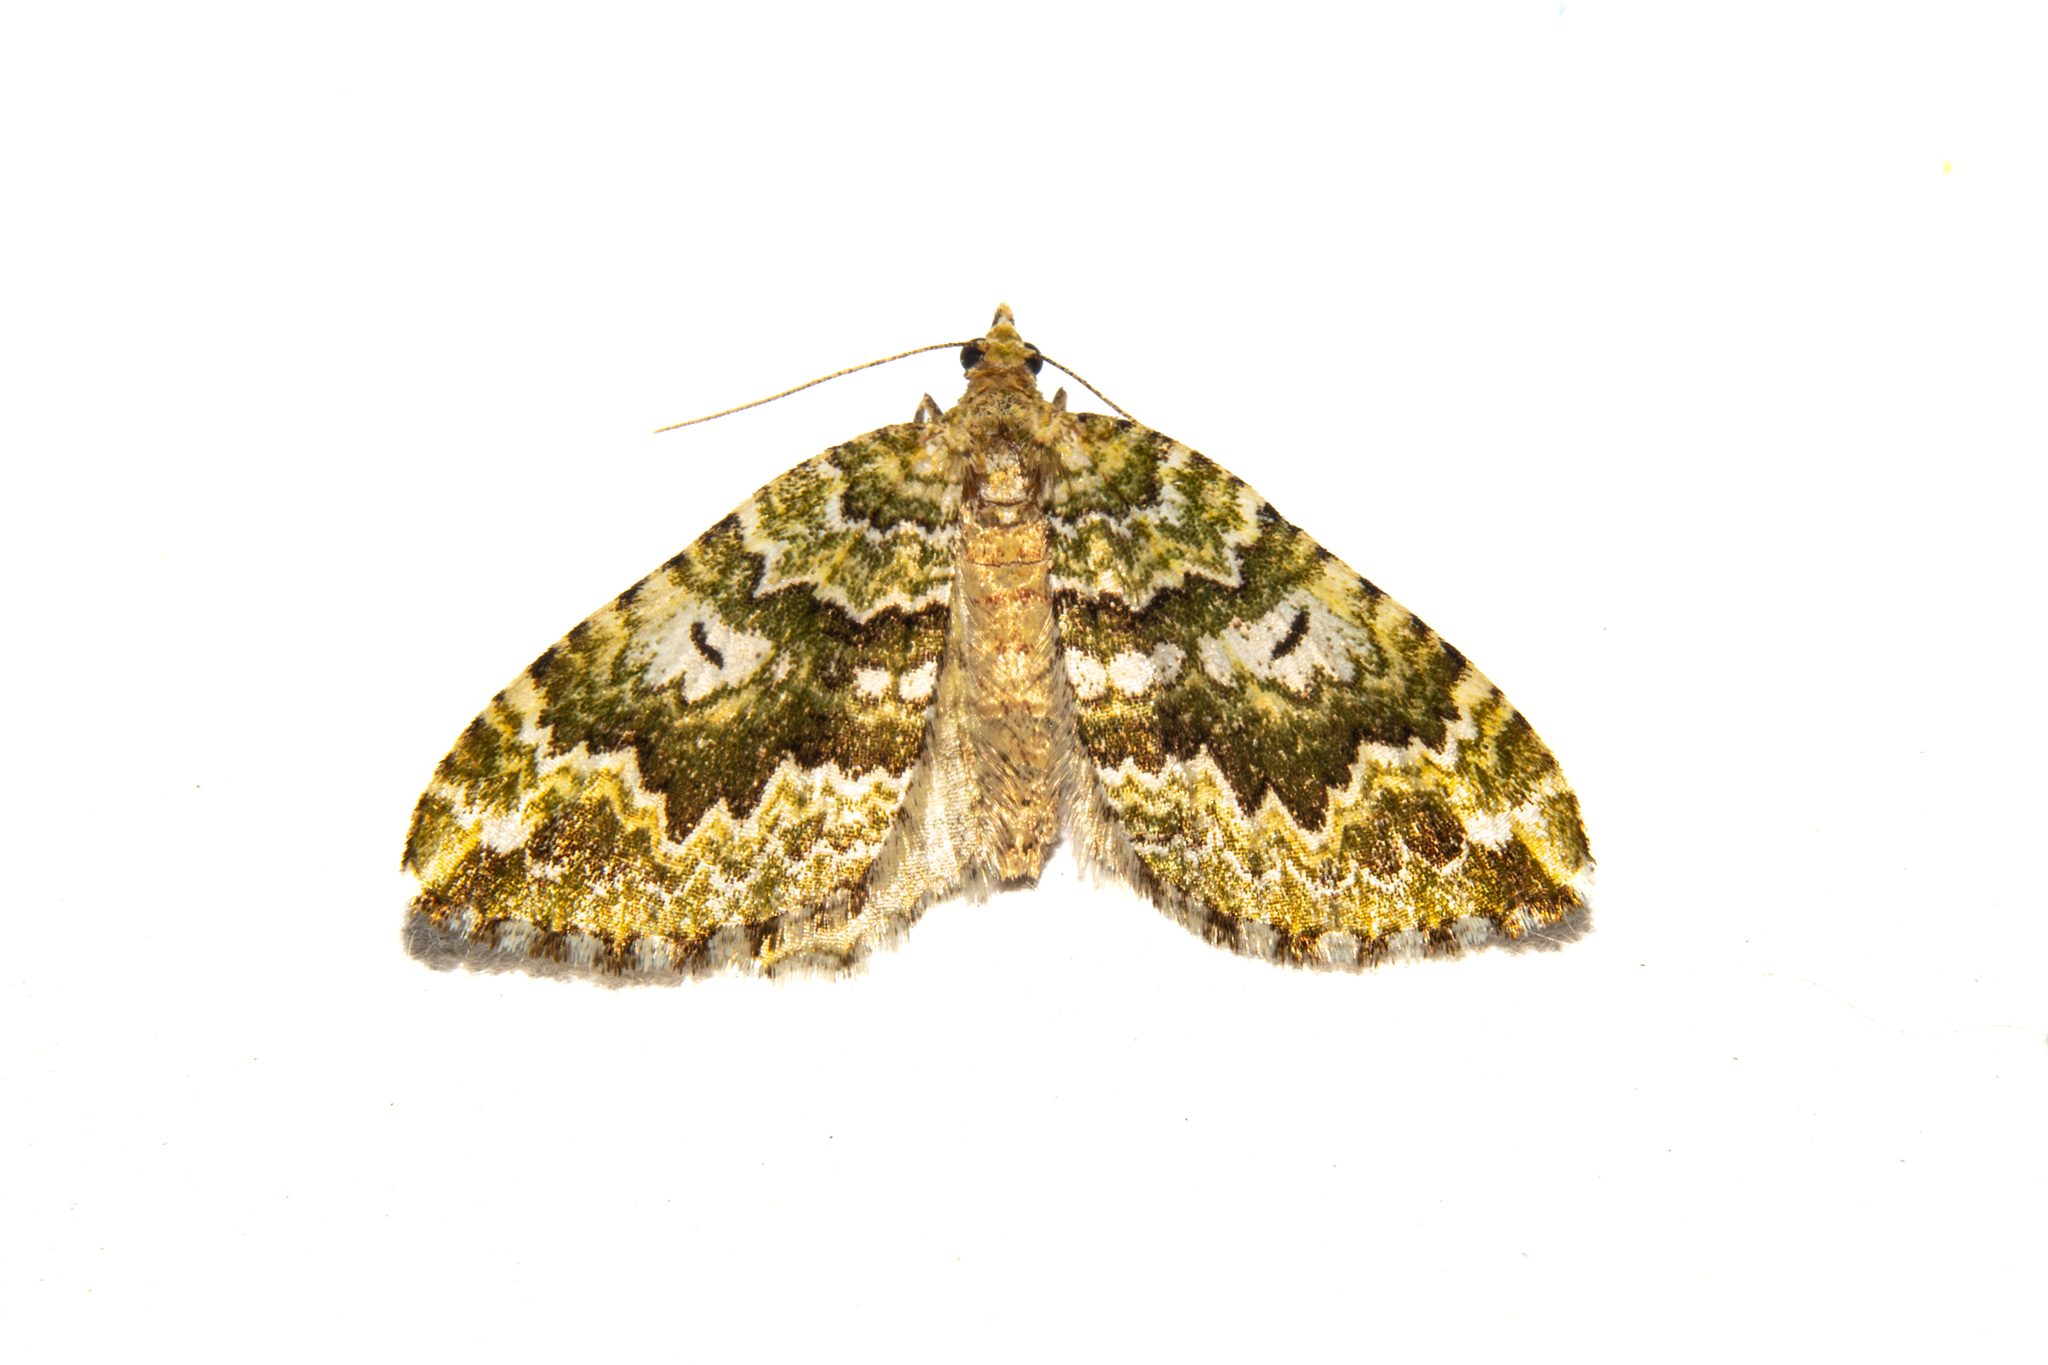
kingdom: Animalia
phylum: Arthropoda
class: Insecta
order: Lepidoptera
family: Geometridae
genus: Asaphodes
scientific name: Asaphodes beata
